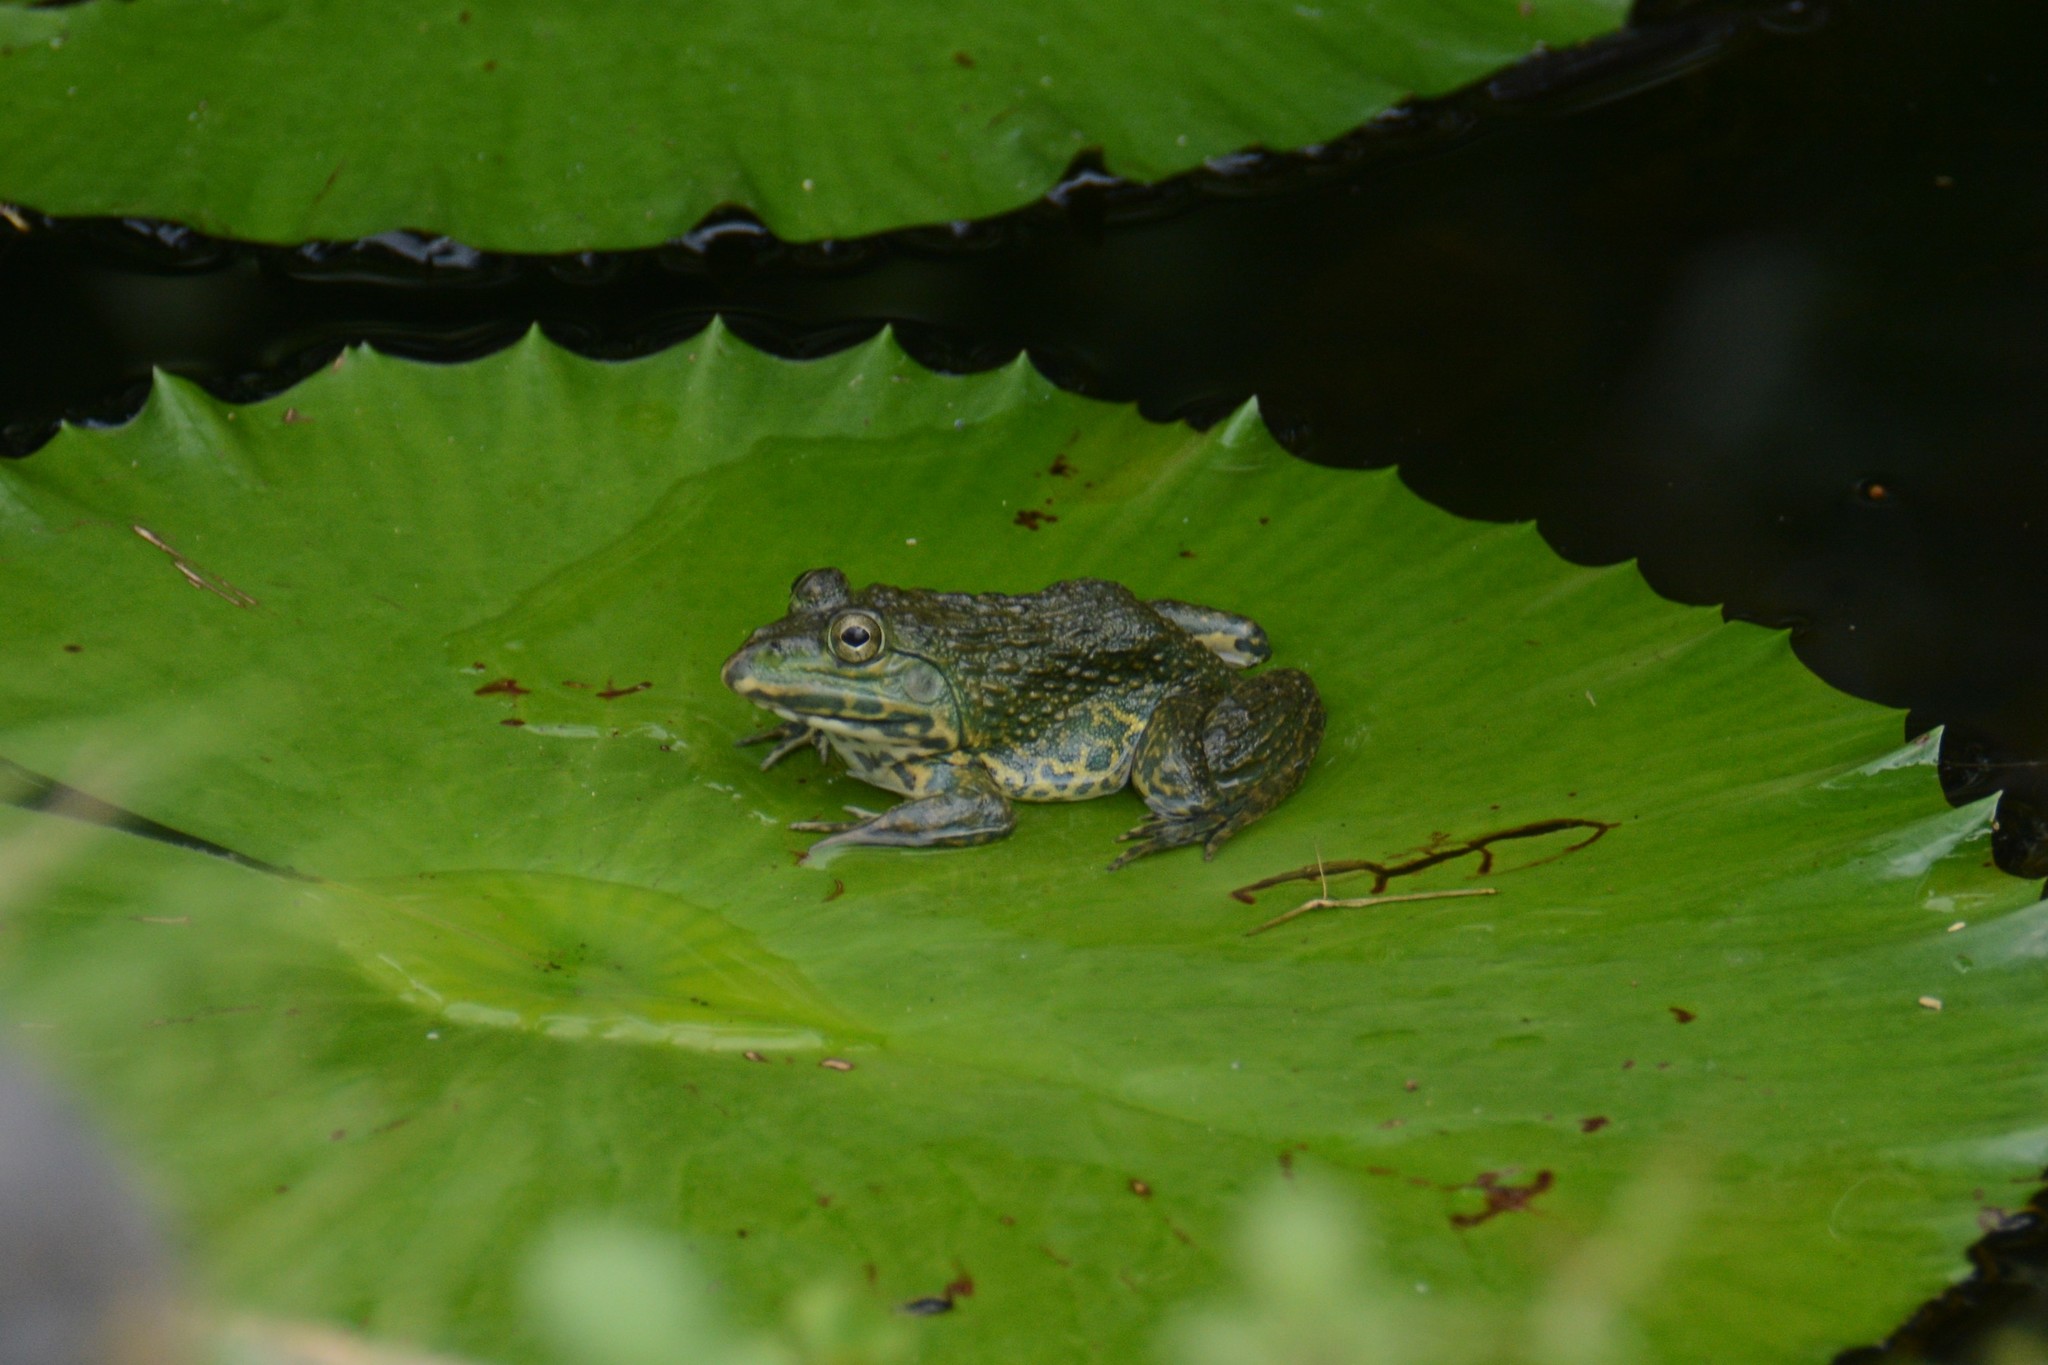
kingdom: Animalia
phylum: Chordata
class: Amphibia
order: Anura
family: Dicroglossidae
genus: Hoplobatrachus
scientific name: Hoplobatrachus rugulosus
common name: Chinese edible frog
